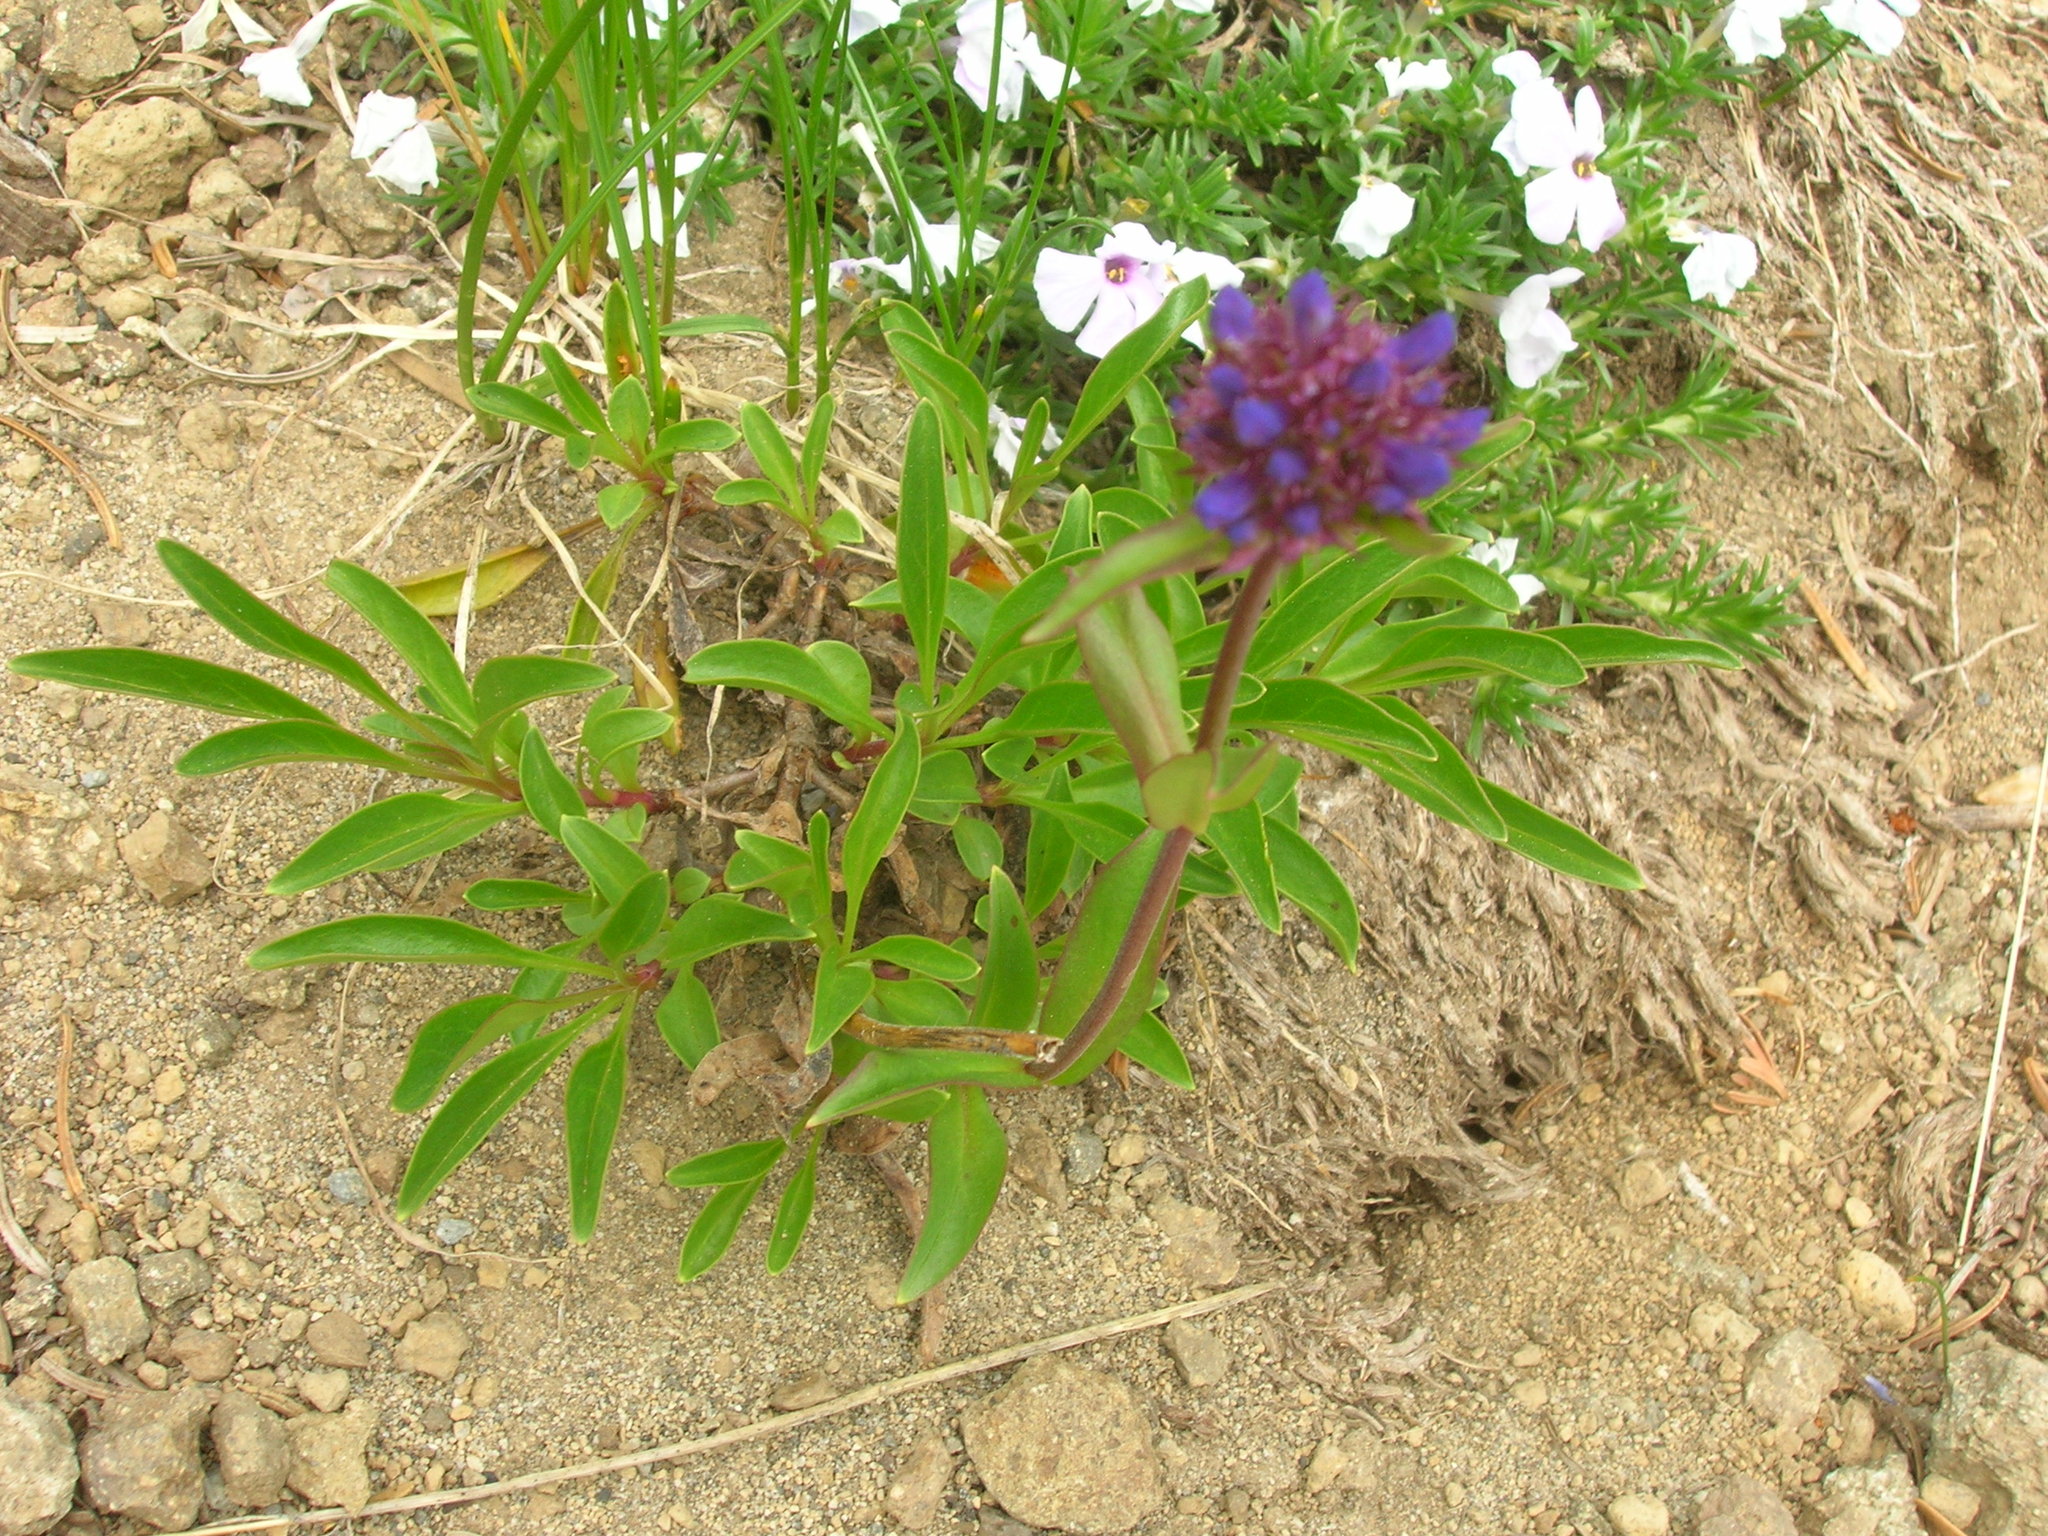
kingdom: Plantae
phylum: Tracheophyta
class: Magnoliopsida
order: Lamiales
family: Plantaginaceae
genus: Penstemon
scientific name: Penstemon procerus
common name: Small-flower penstemon
